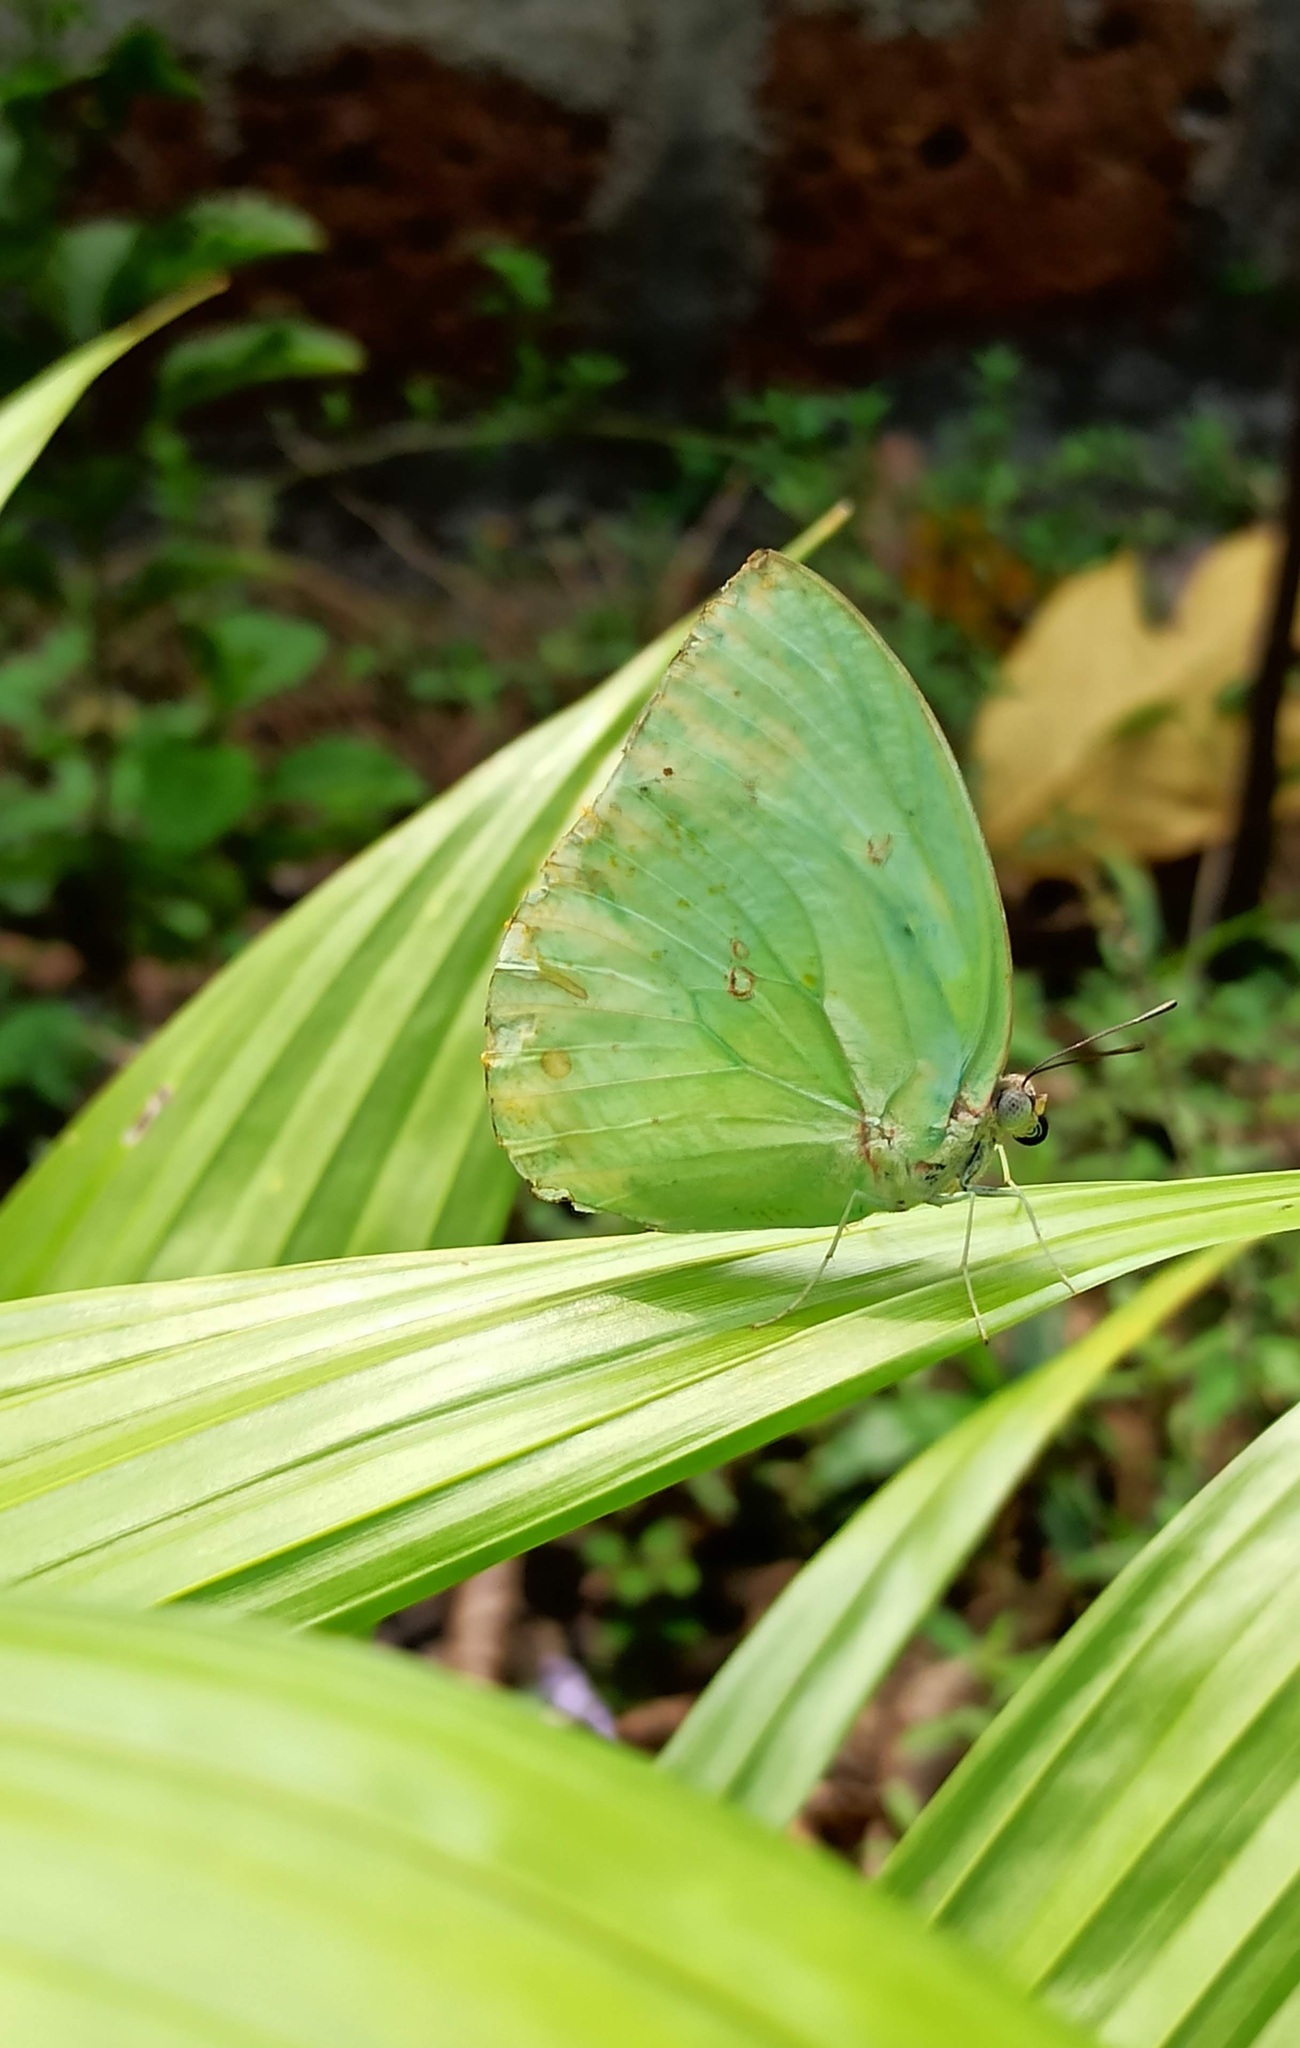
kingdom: Animalia
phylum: Arthropoda
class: Insecta
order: Lepidoptera
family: Pieridae
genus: Catopsilia
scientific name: Catopsilia pomona
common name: Common emigrant
